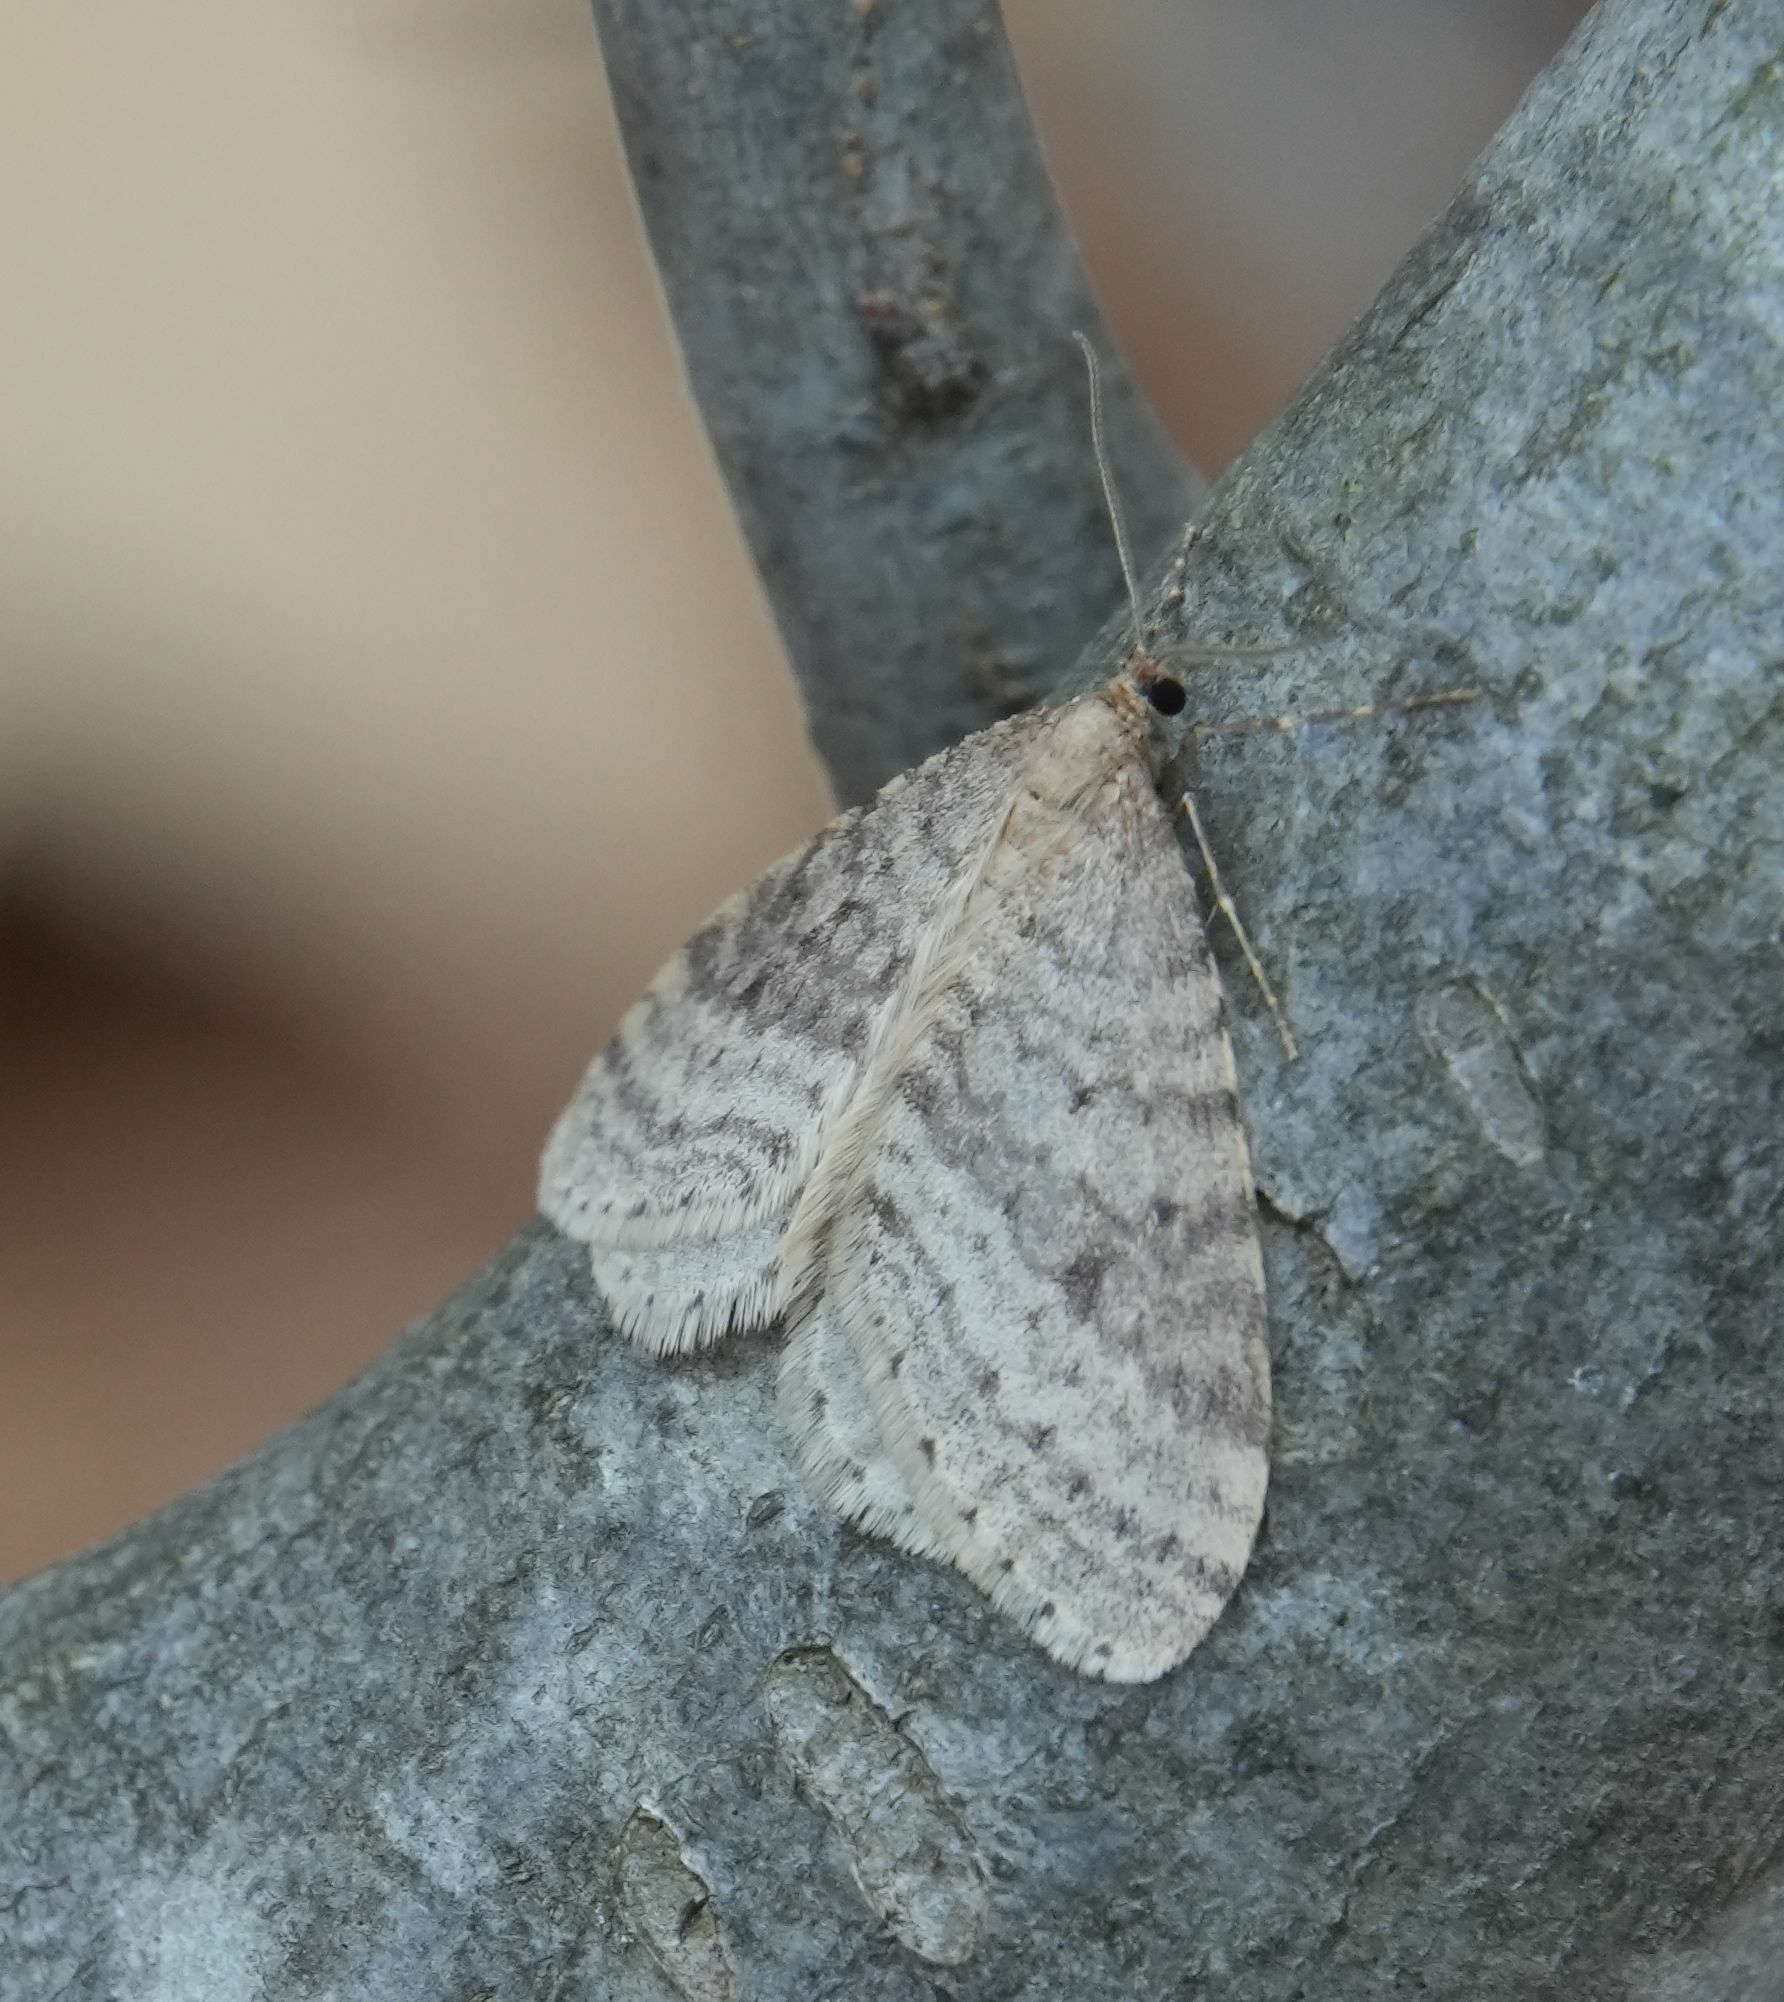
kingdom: Animalia
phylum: Arthropoda
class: Insecta
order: Lepidoptera
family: Geometridae
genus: Operophtera
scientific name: Operophtera bruceata
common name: Bruce spanworm
